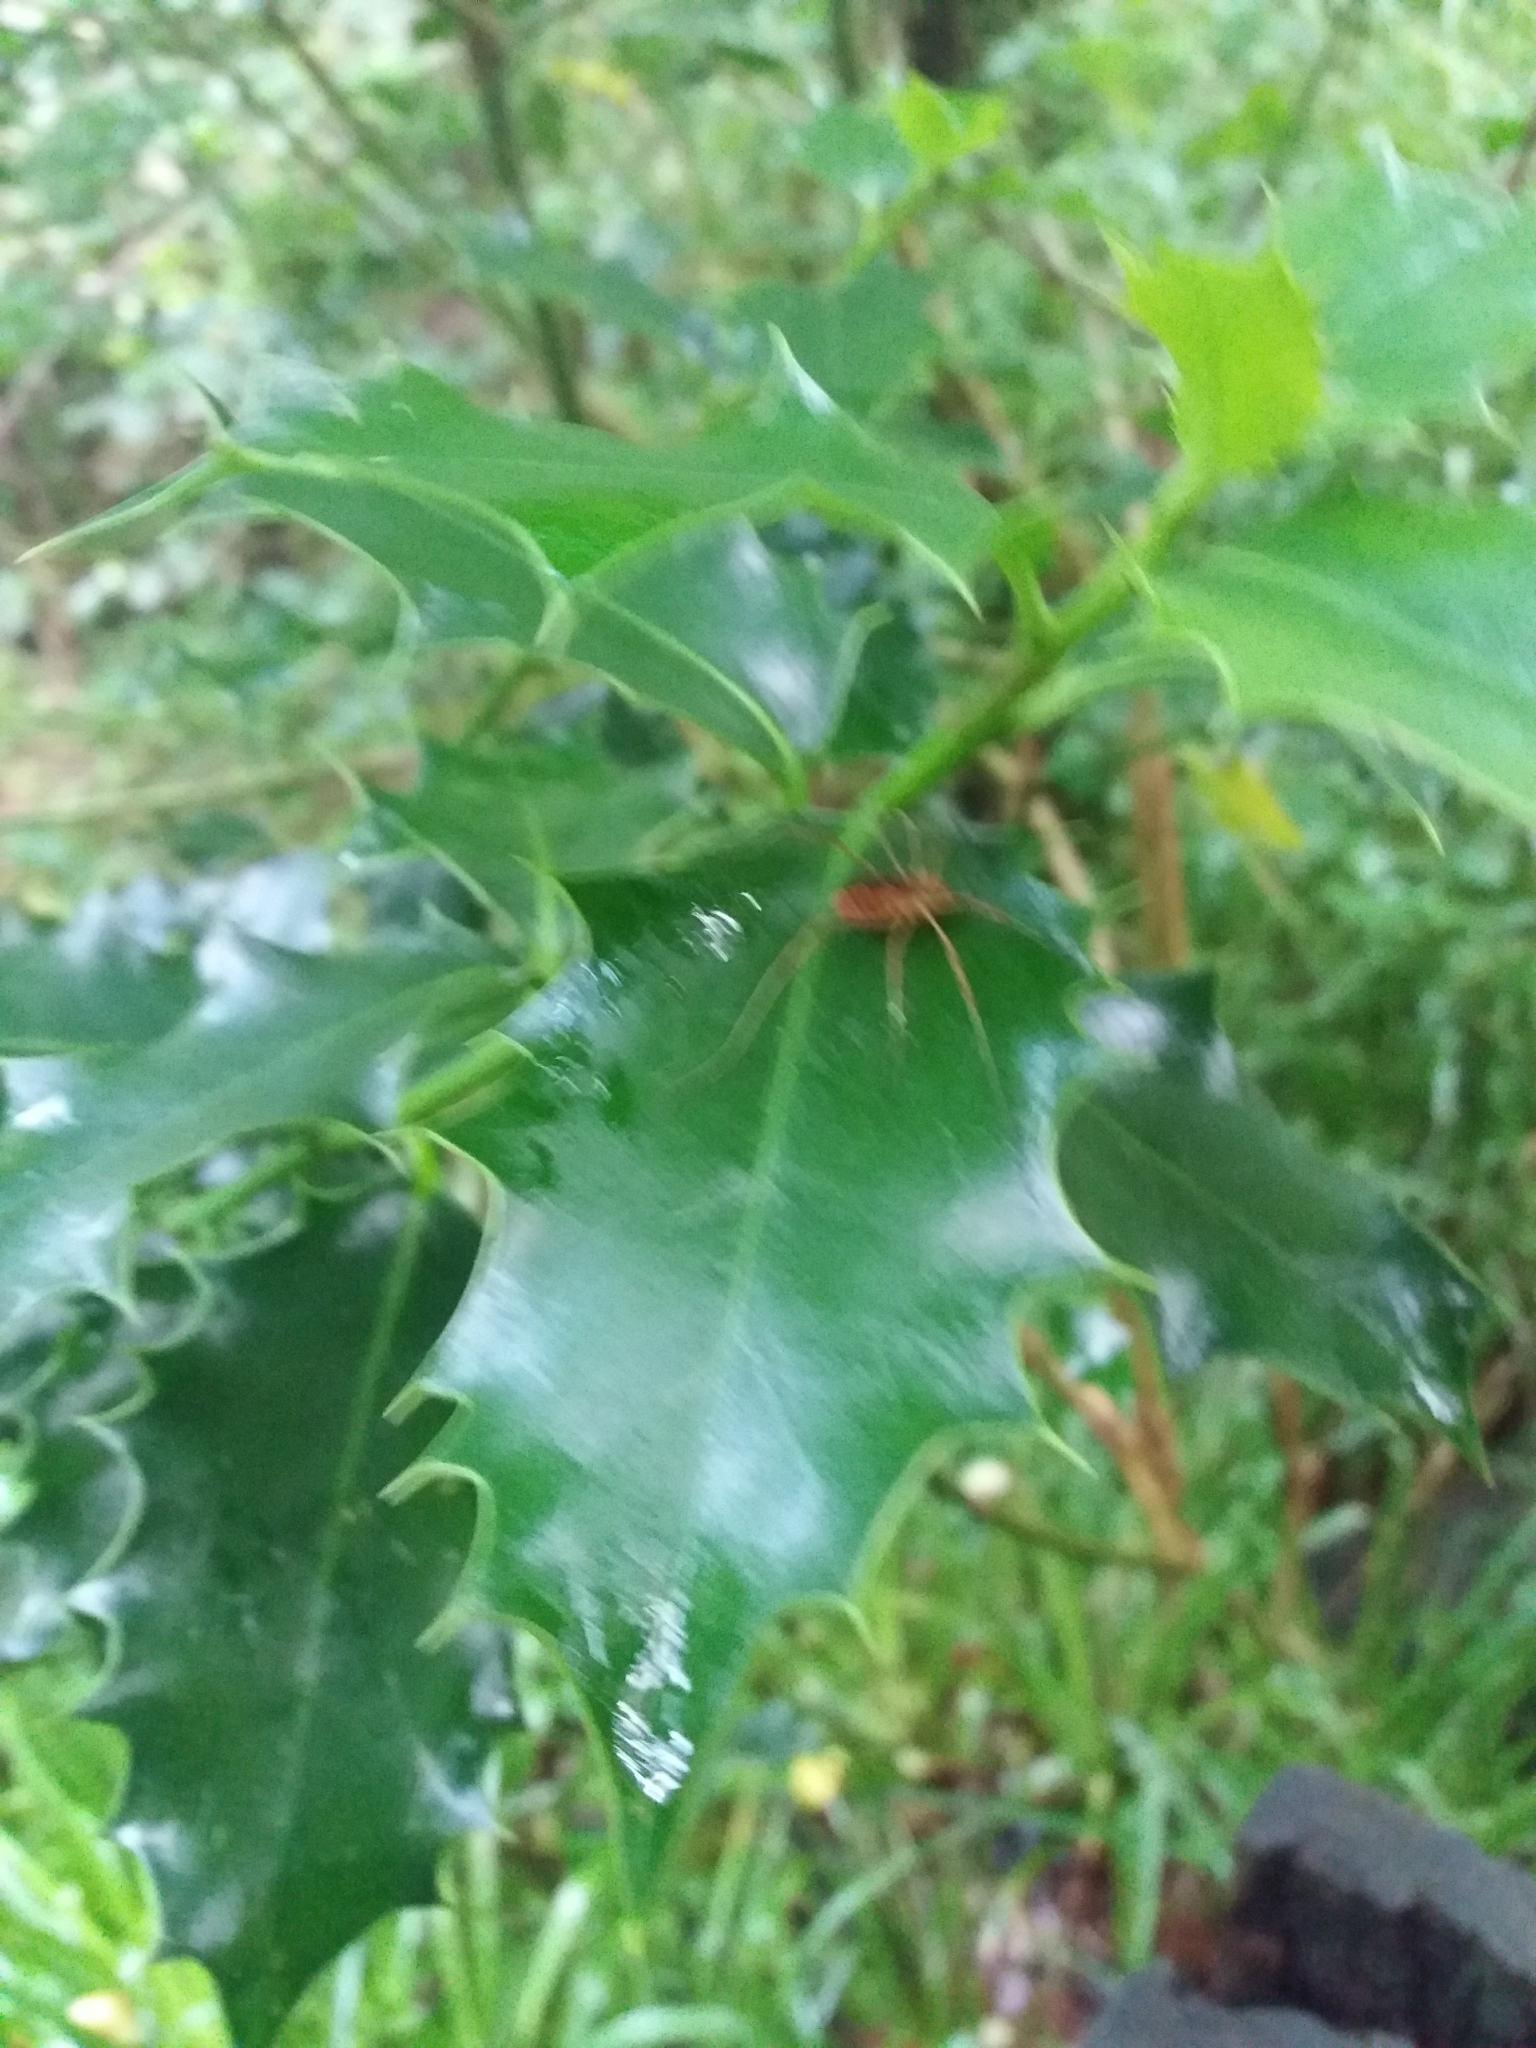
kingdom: Plantae
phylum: Tracheophyta
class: Magnoliopsida
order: Aquifoliales
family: Aquifoliaceae
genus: Ilex
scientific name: Ilex aquifolium
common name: English holly
